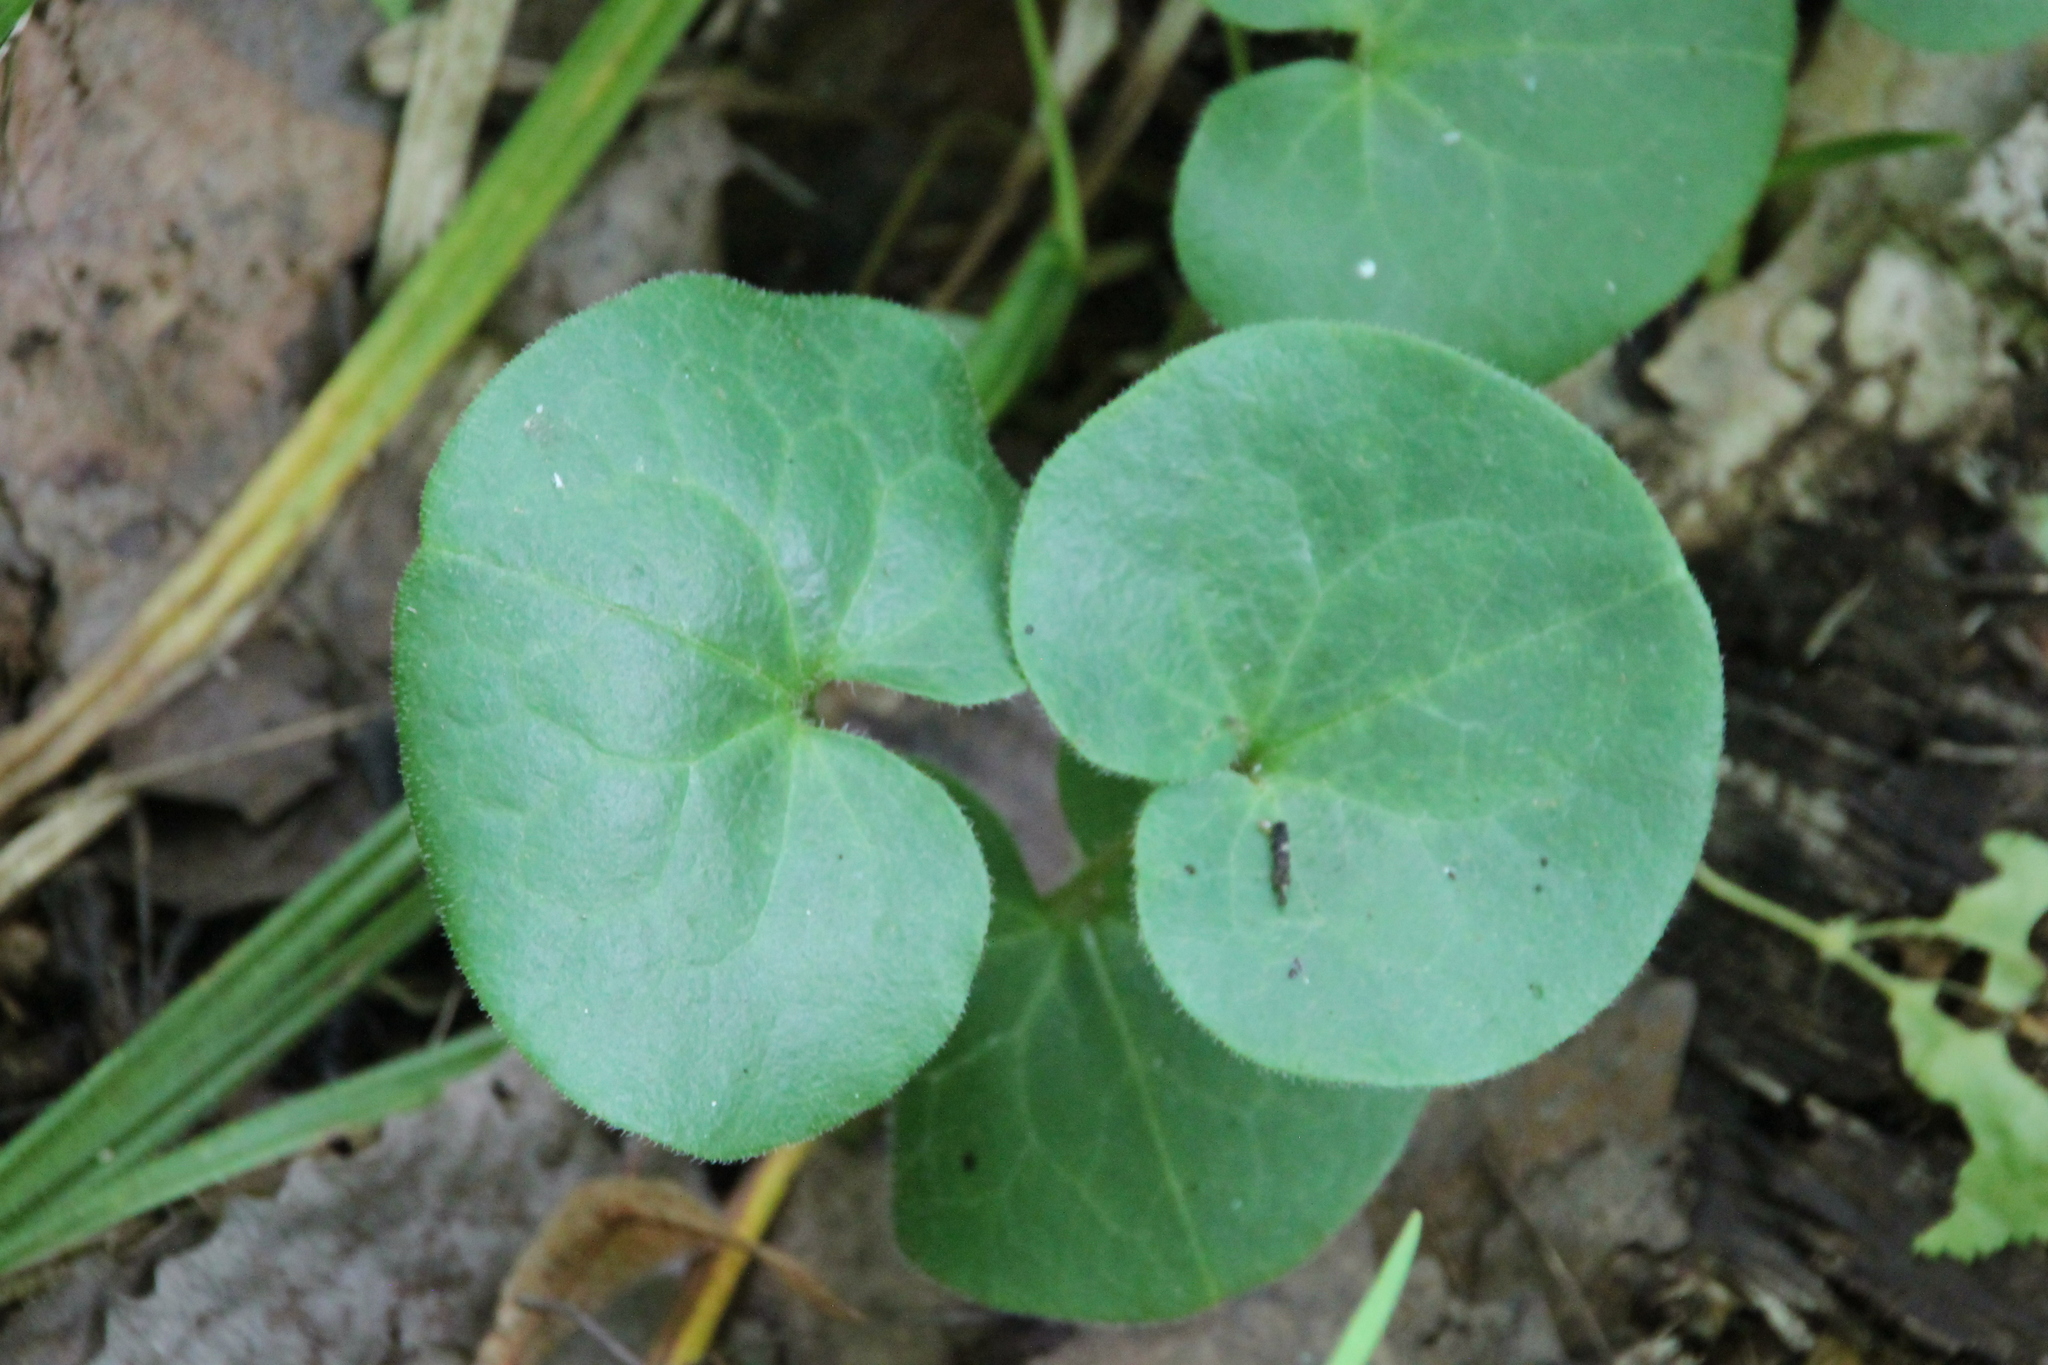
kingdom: Plantae
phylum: Tracheophyta
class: Magnoliopsida
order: Piperales
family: Aristolochiaceae
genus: Asarum
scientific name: Asarum europaeum
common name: Asarabacca
